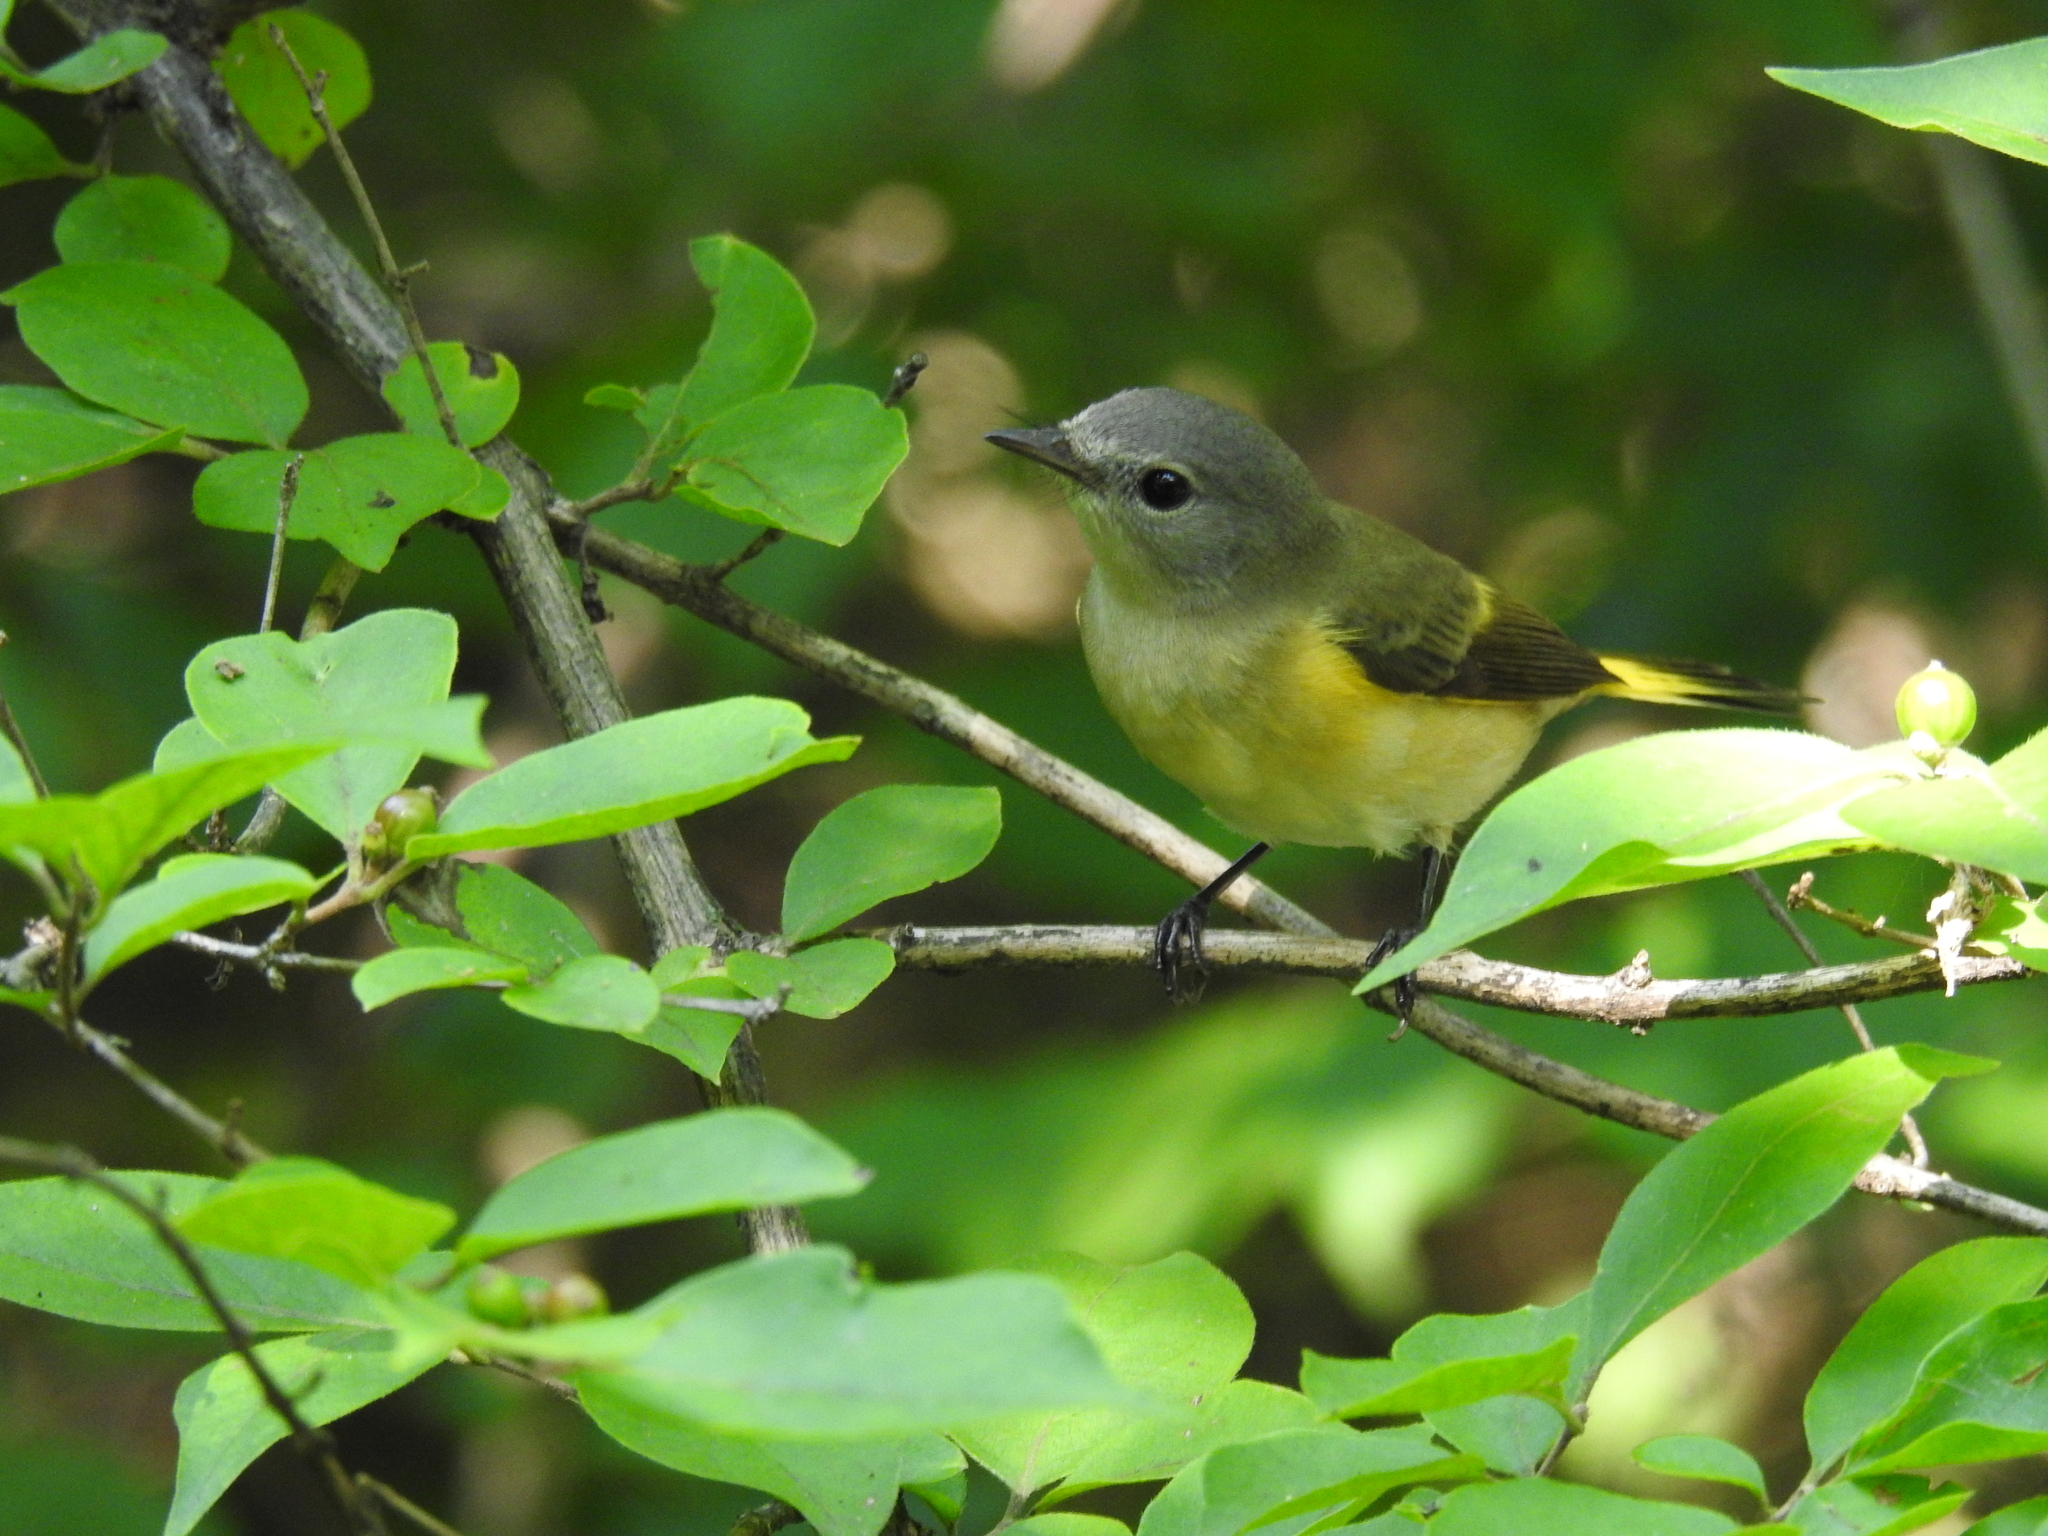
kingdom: Animalia
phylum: Chordata
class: Aves
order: Passeriformes
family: Parulidae
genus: Setophaga
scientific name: Setophaga ruticilla
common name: American redstart
